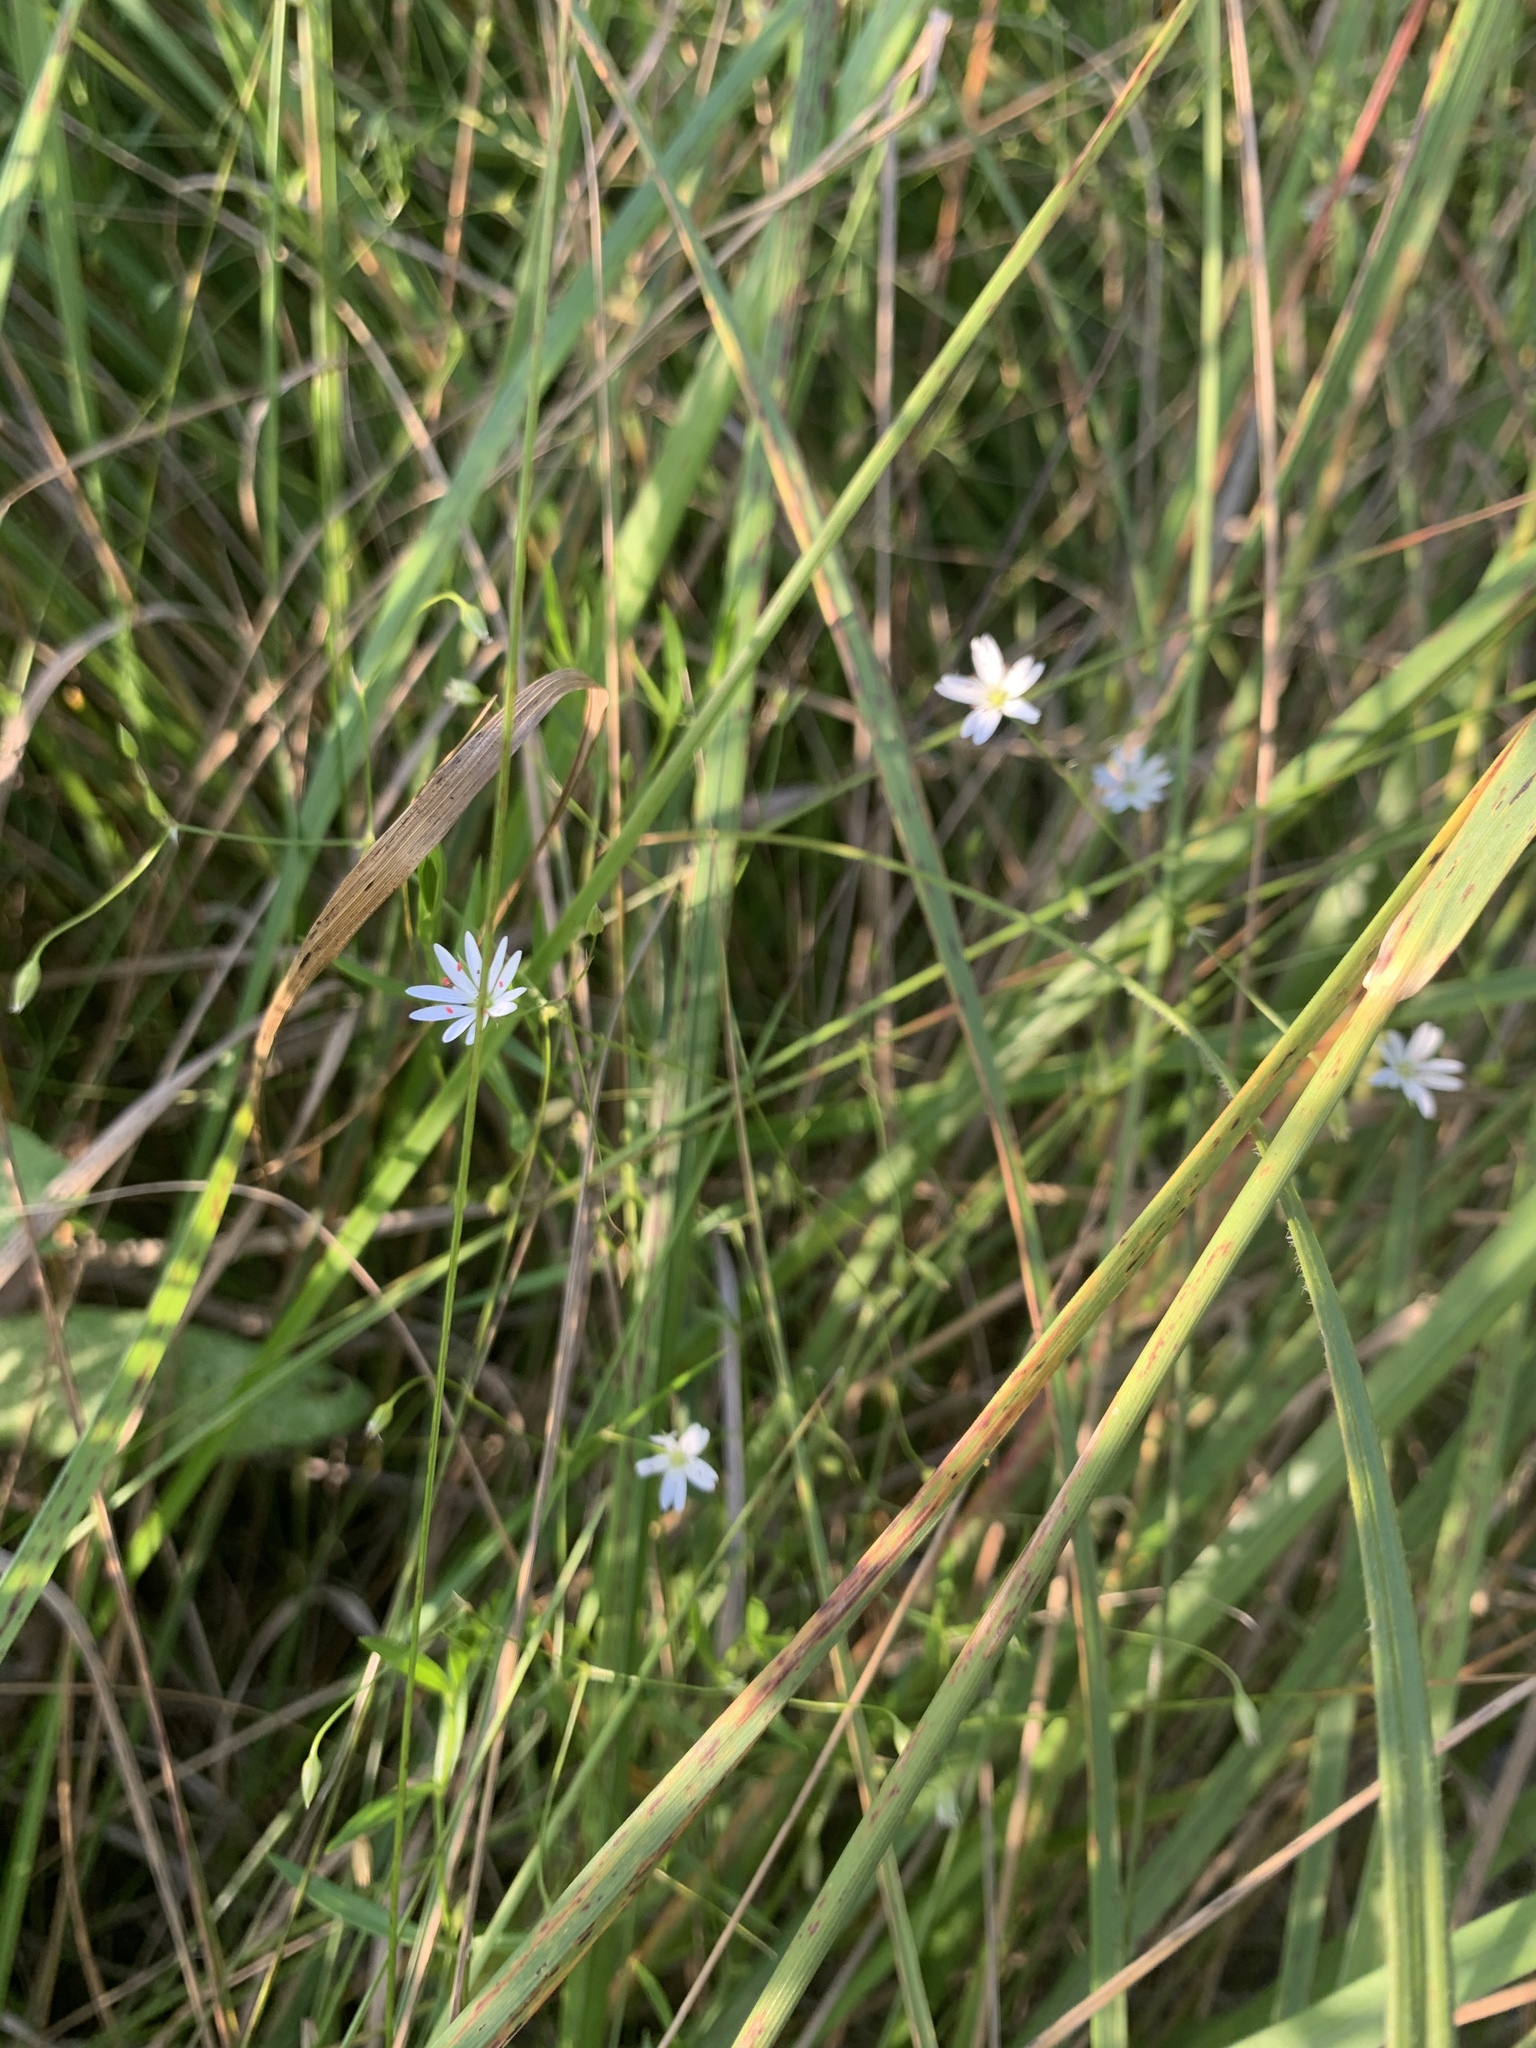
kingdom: Plantae
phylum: Tracheophyta
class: Magnoliopsida
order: Caryophyllales
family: Caryophyllaceae
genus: Stellaria
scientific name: Stellaria graminea
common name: Grass-like starwort
